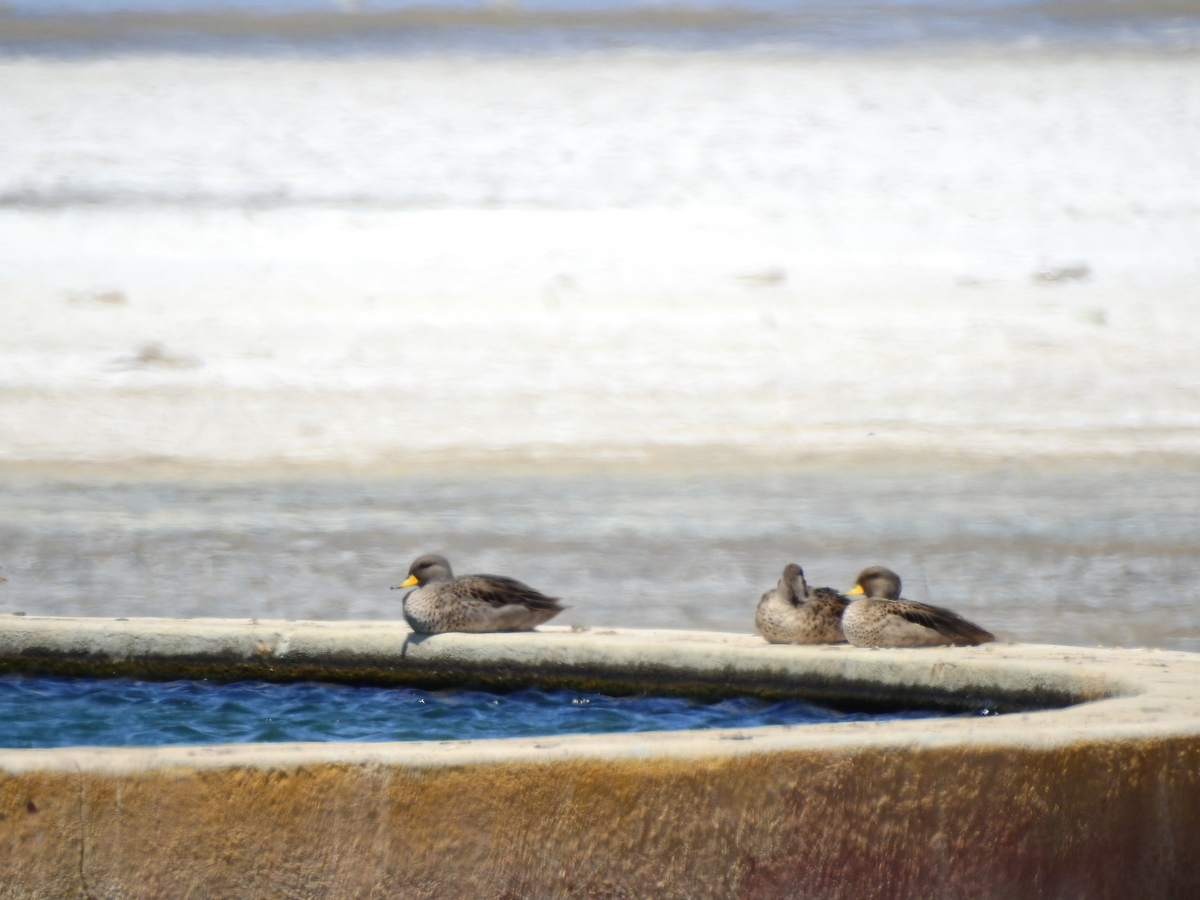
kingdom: Animalia
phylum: Chordata
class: Aves
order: Anseriformes
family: Anatidae
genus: Anas
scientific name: Anas flavirostris
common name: Yellow-billed teal
